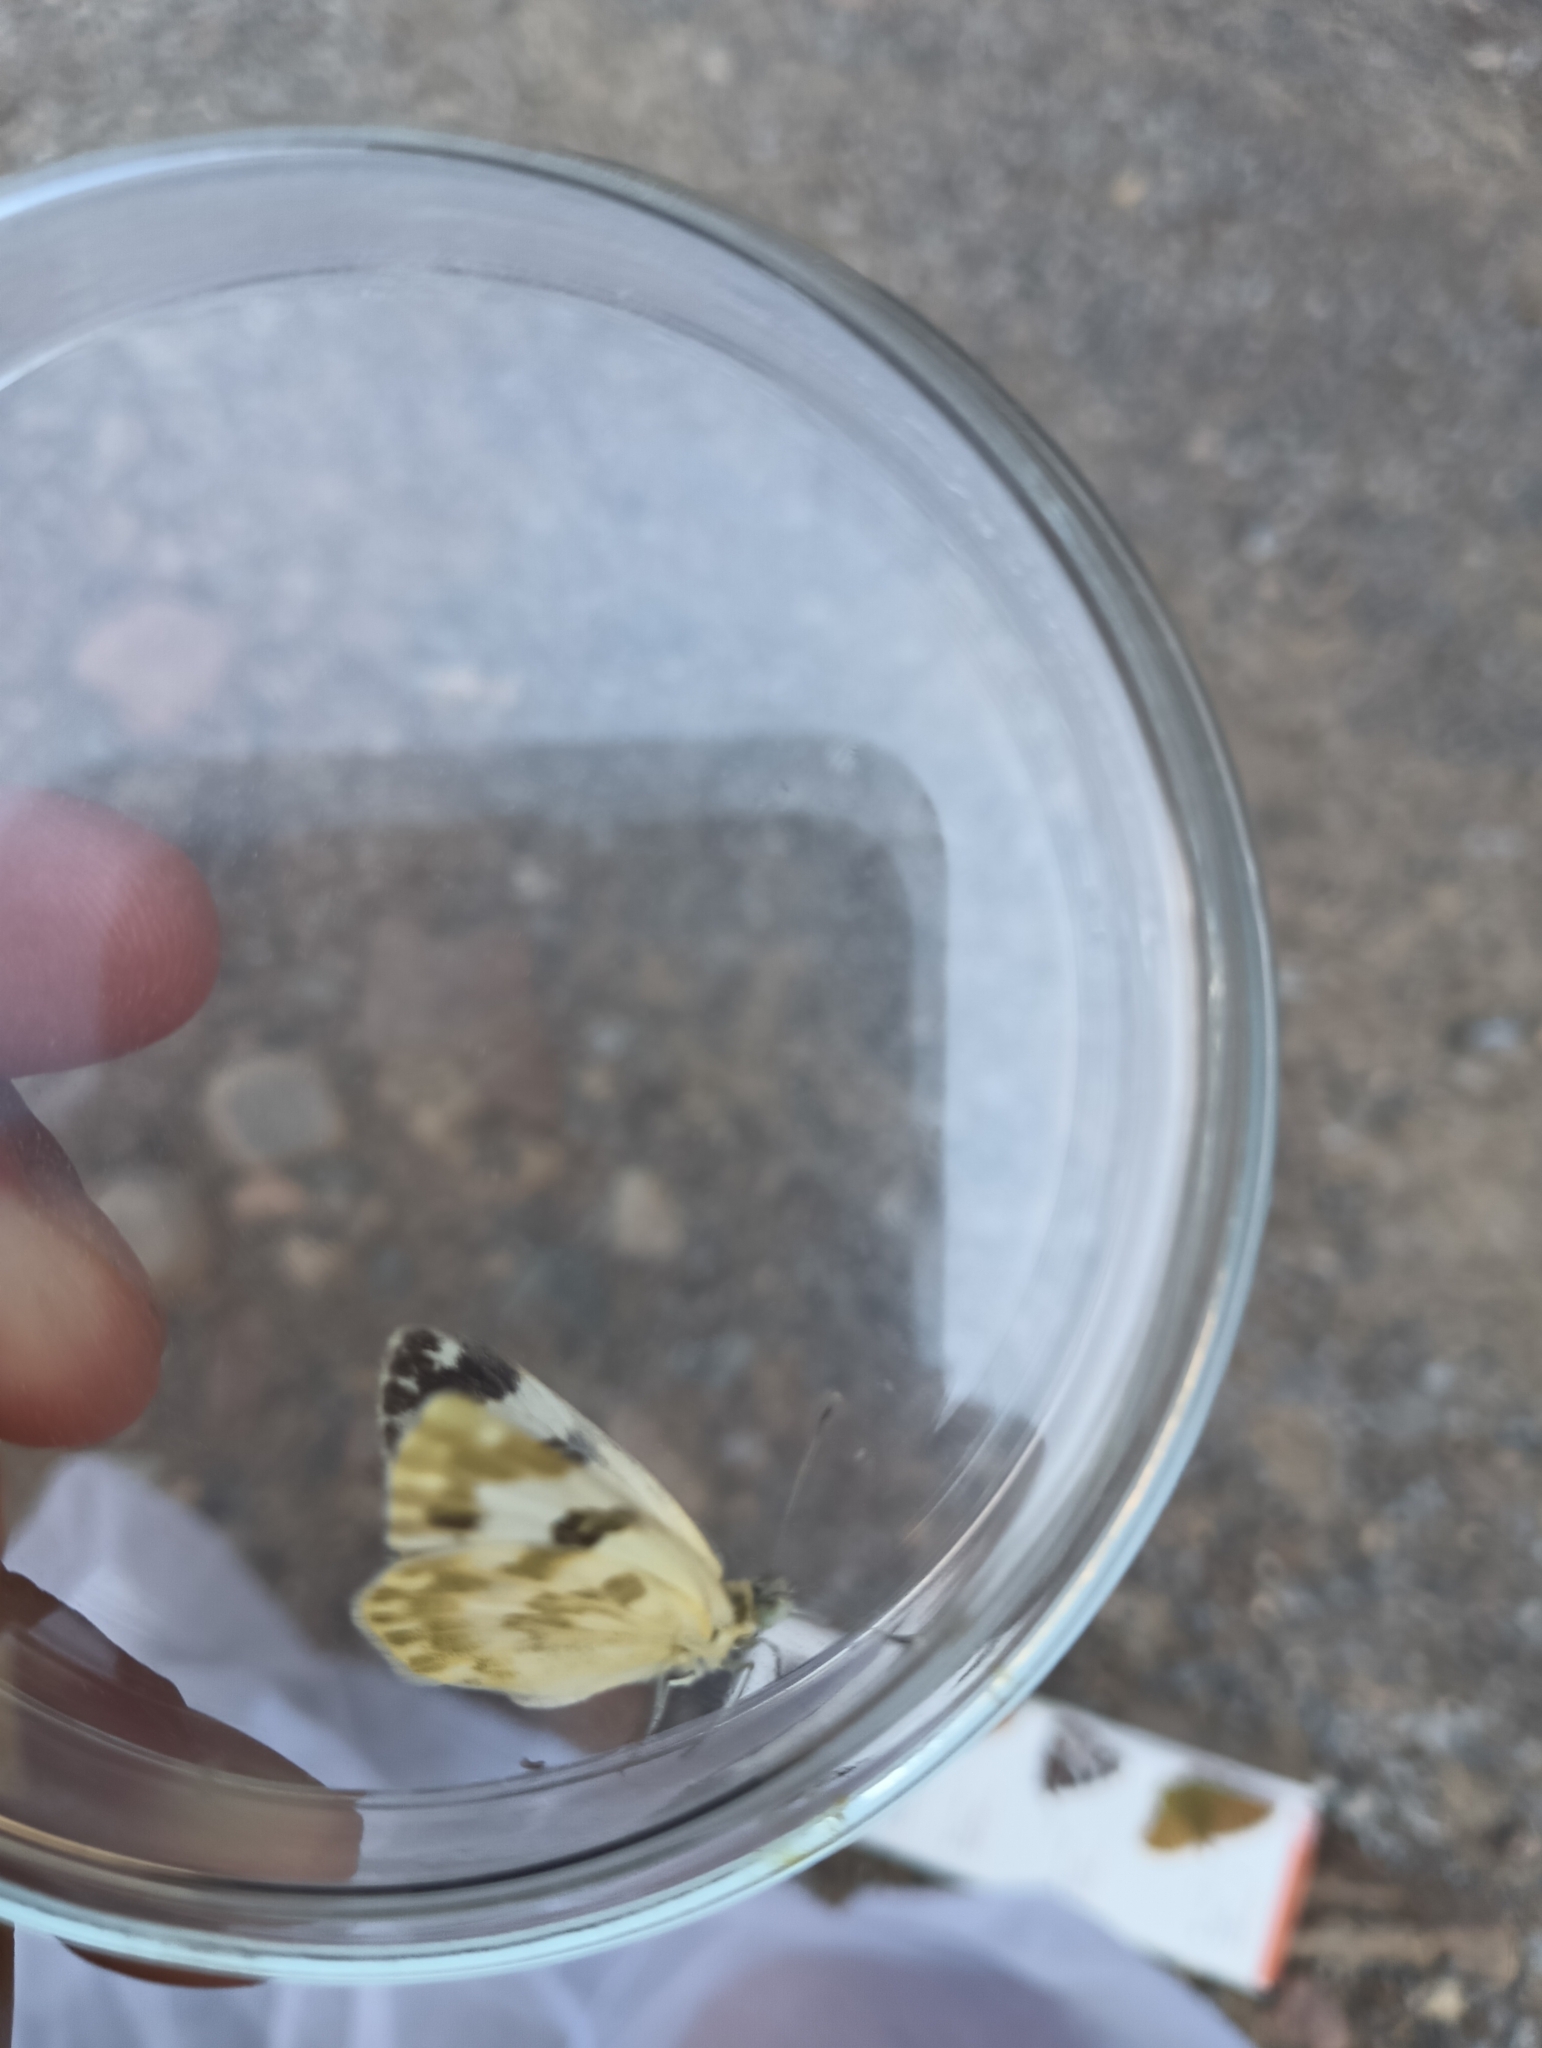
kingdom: Animalia
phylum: Arthropoda
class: Insecta
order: Lepidoptera
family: Pieridae
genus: Pontia
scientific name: Pontia daplidice
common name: Bath white
